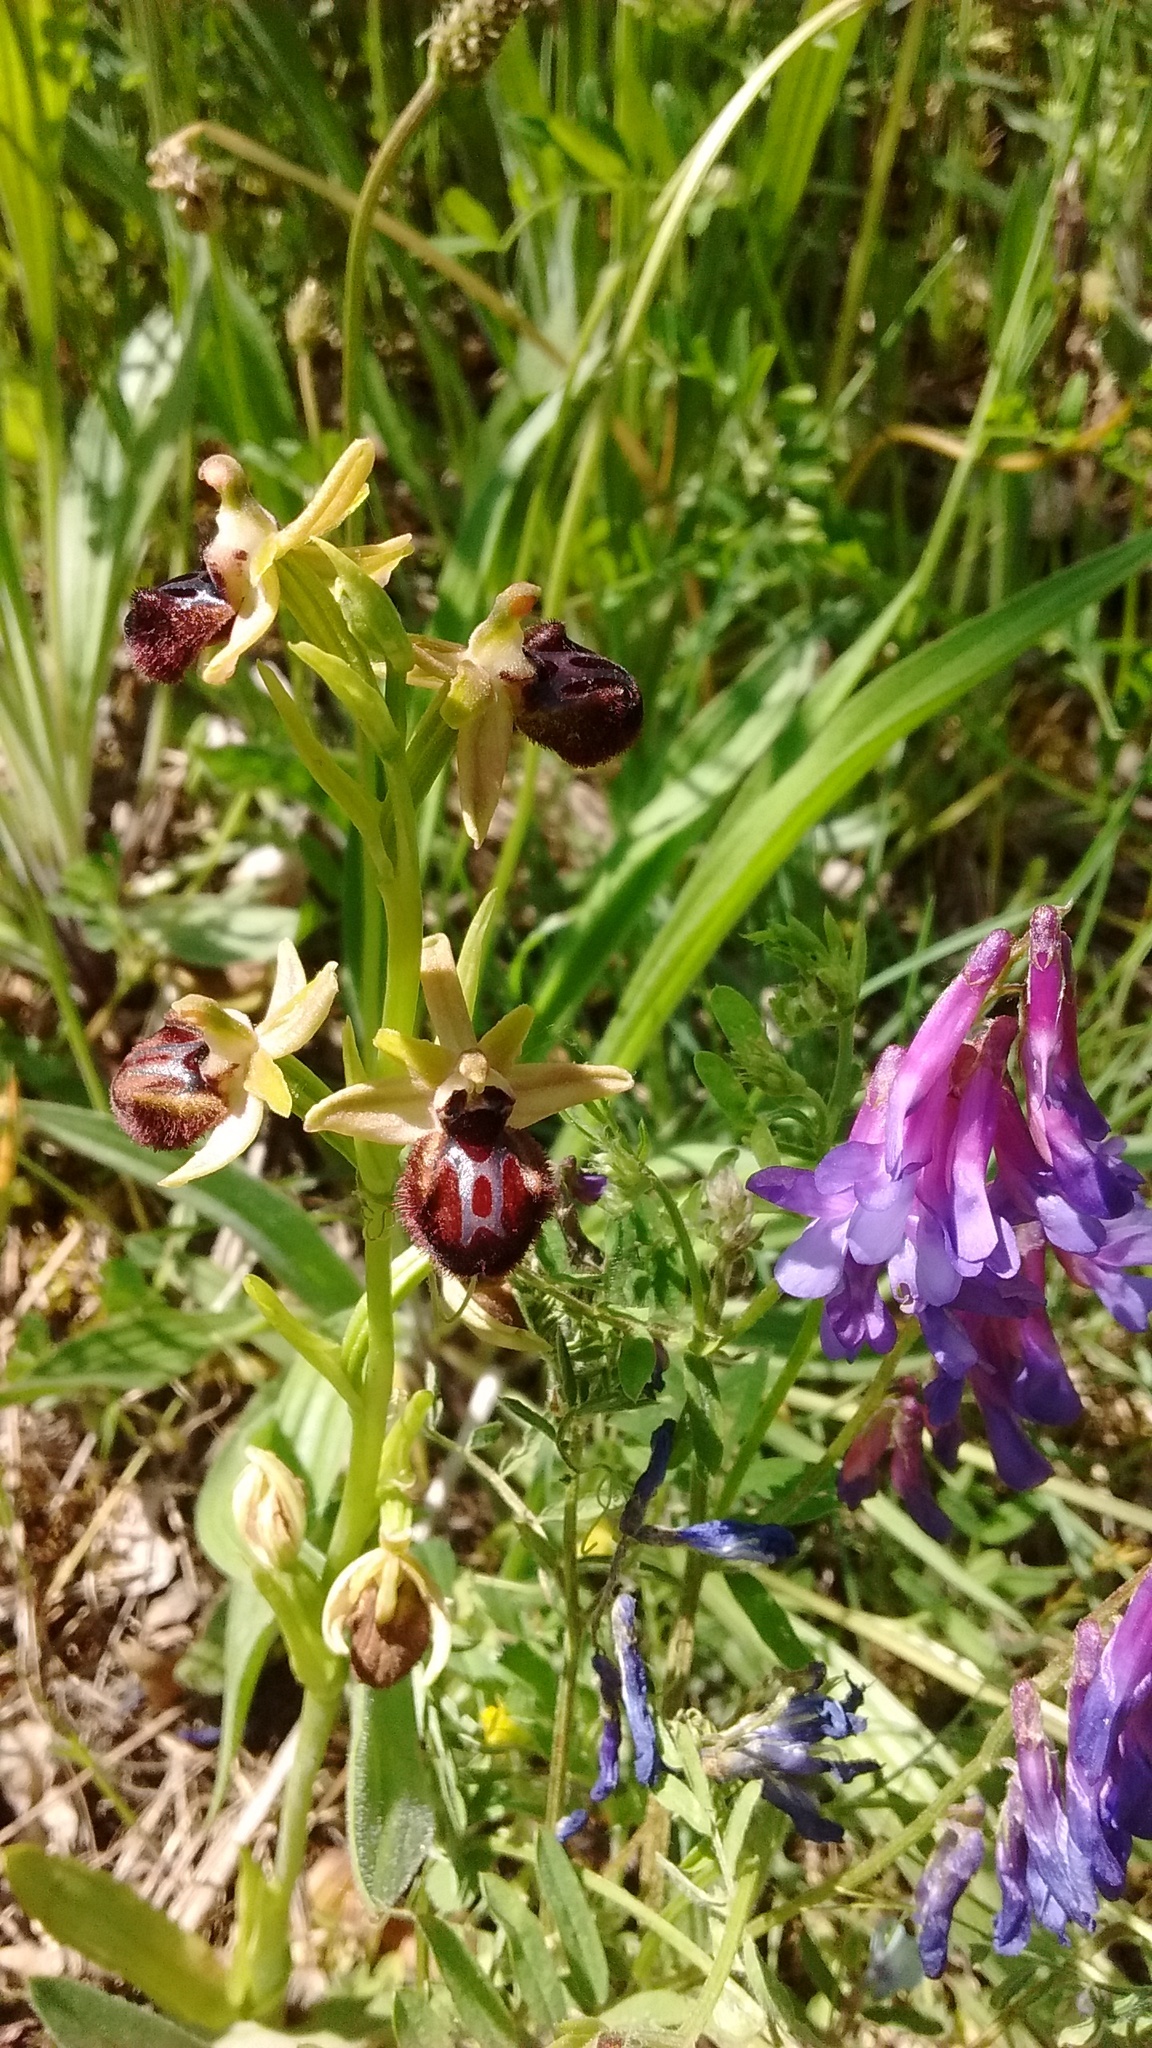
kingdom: Plantae
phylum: Tracheophyta
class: Liliopsida
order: Asparagales
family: Orchidaceae
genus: Ophrys
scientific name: Ophrys sphegodes
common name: Early spider-orchid
